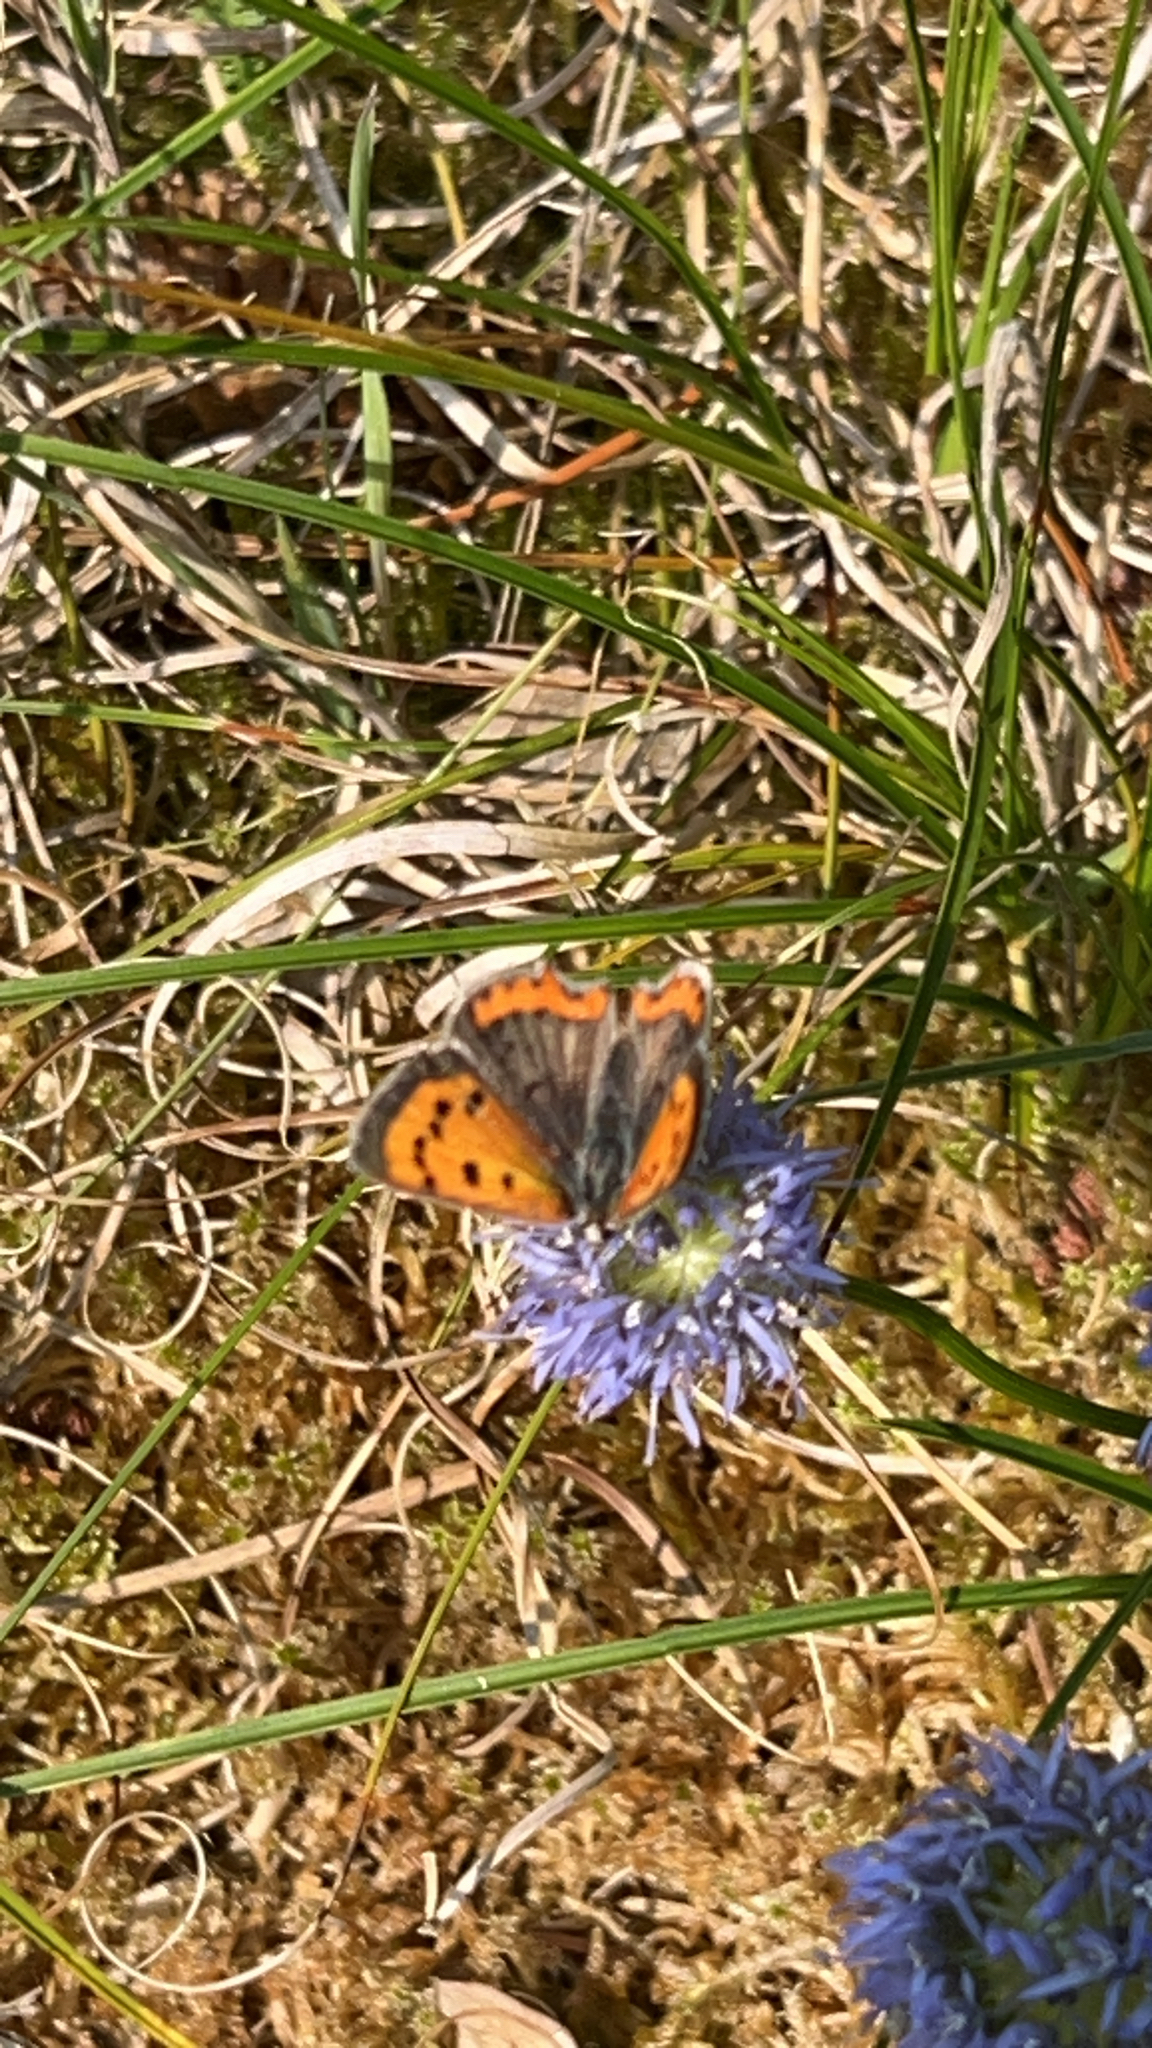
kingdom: Animalia
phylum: Arthropoda
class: Insecta
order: Lepidoptera
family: Lycaenidae
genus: Lycaena
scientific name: Lycaena phlaeas
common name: Small copper
